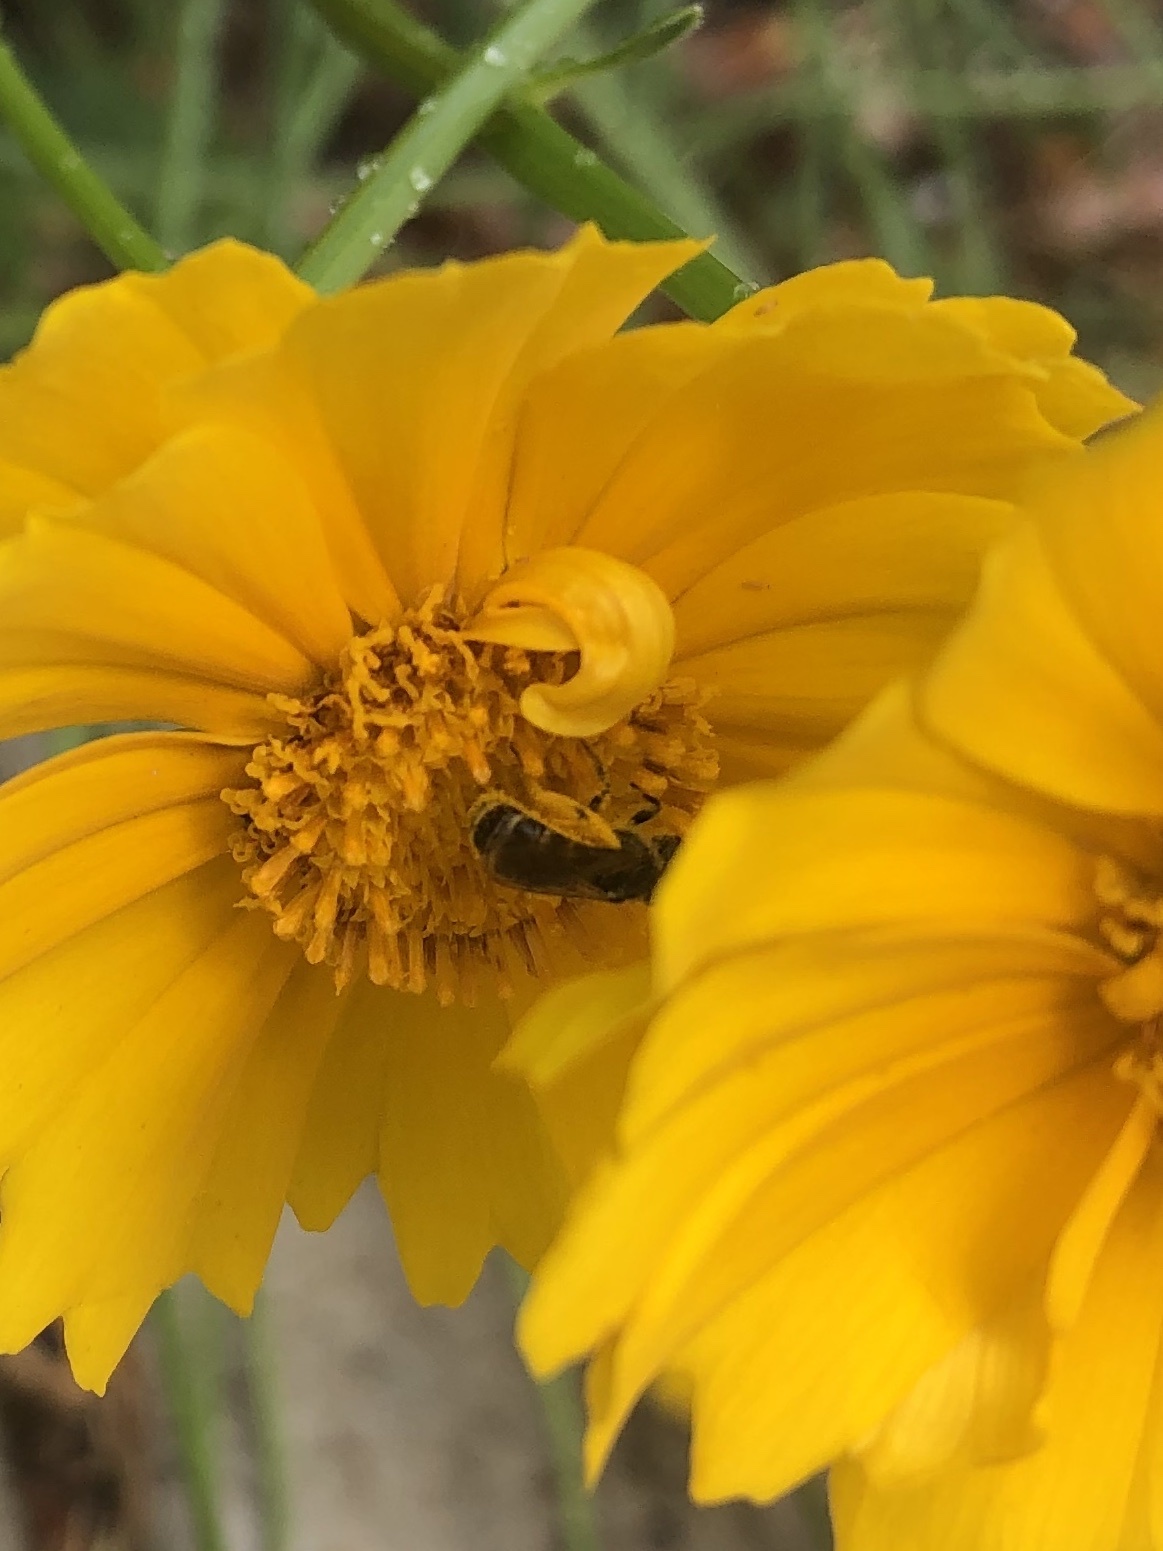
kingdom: Animalia
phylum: Arthropoda
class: Insecta
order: Hymenoptera
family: Halictidae
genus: Halictus
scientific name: Halictus ligatus
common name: Ligated furrow bee
